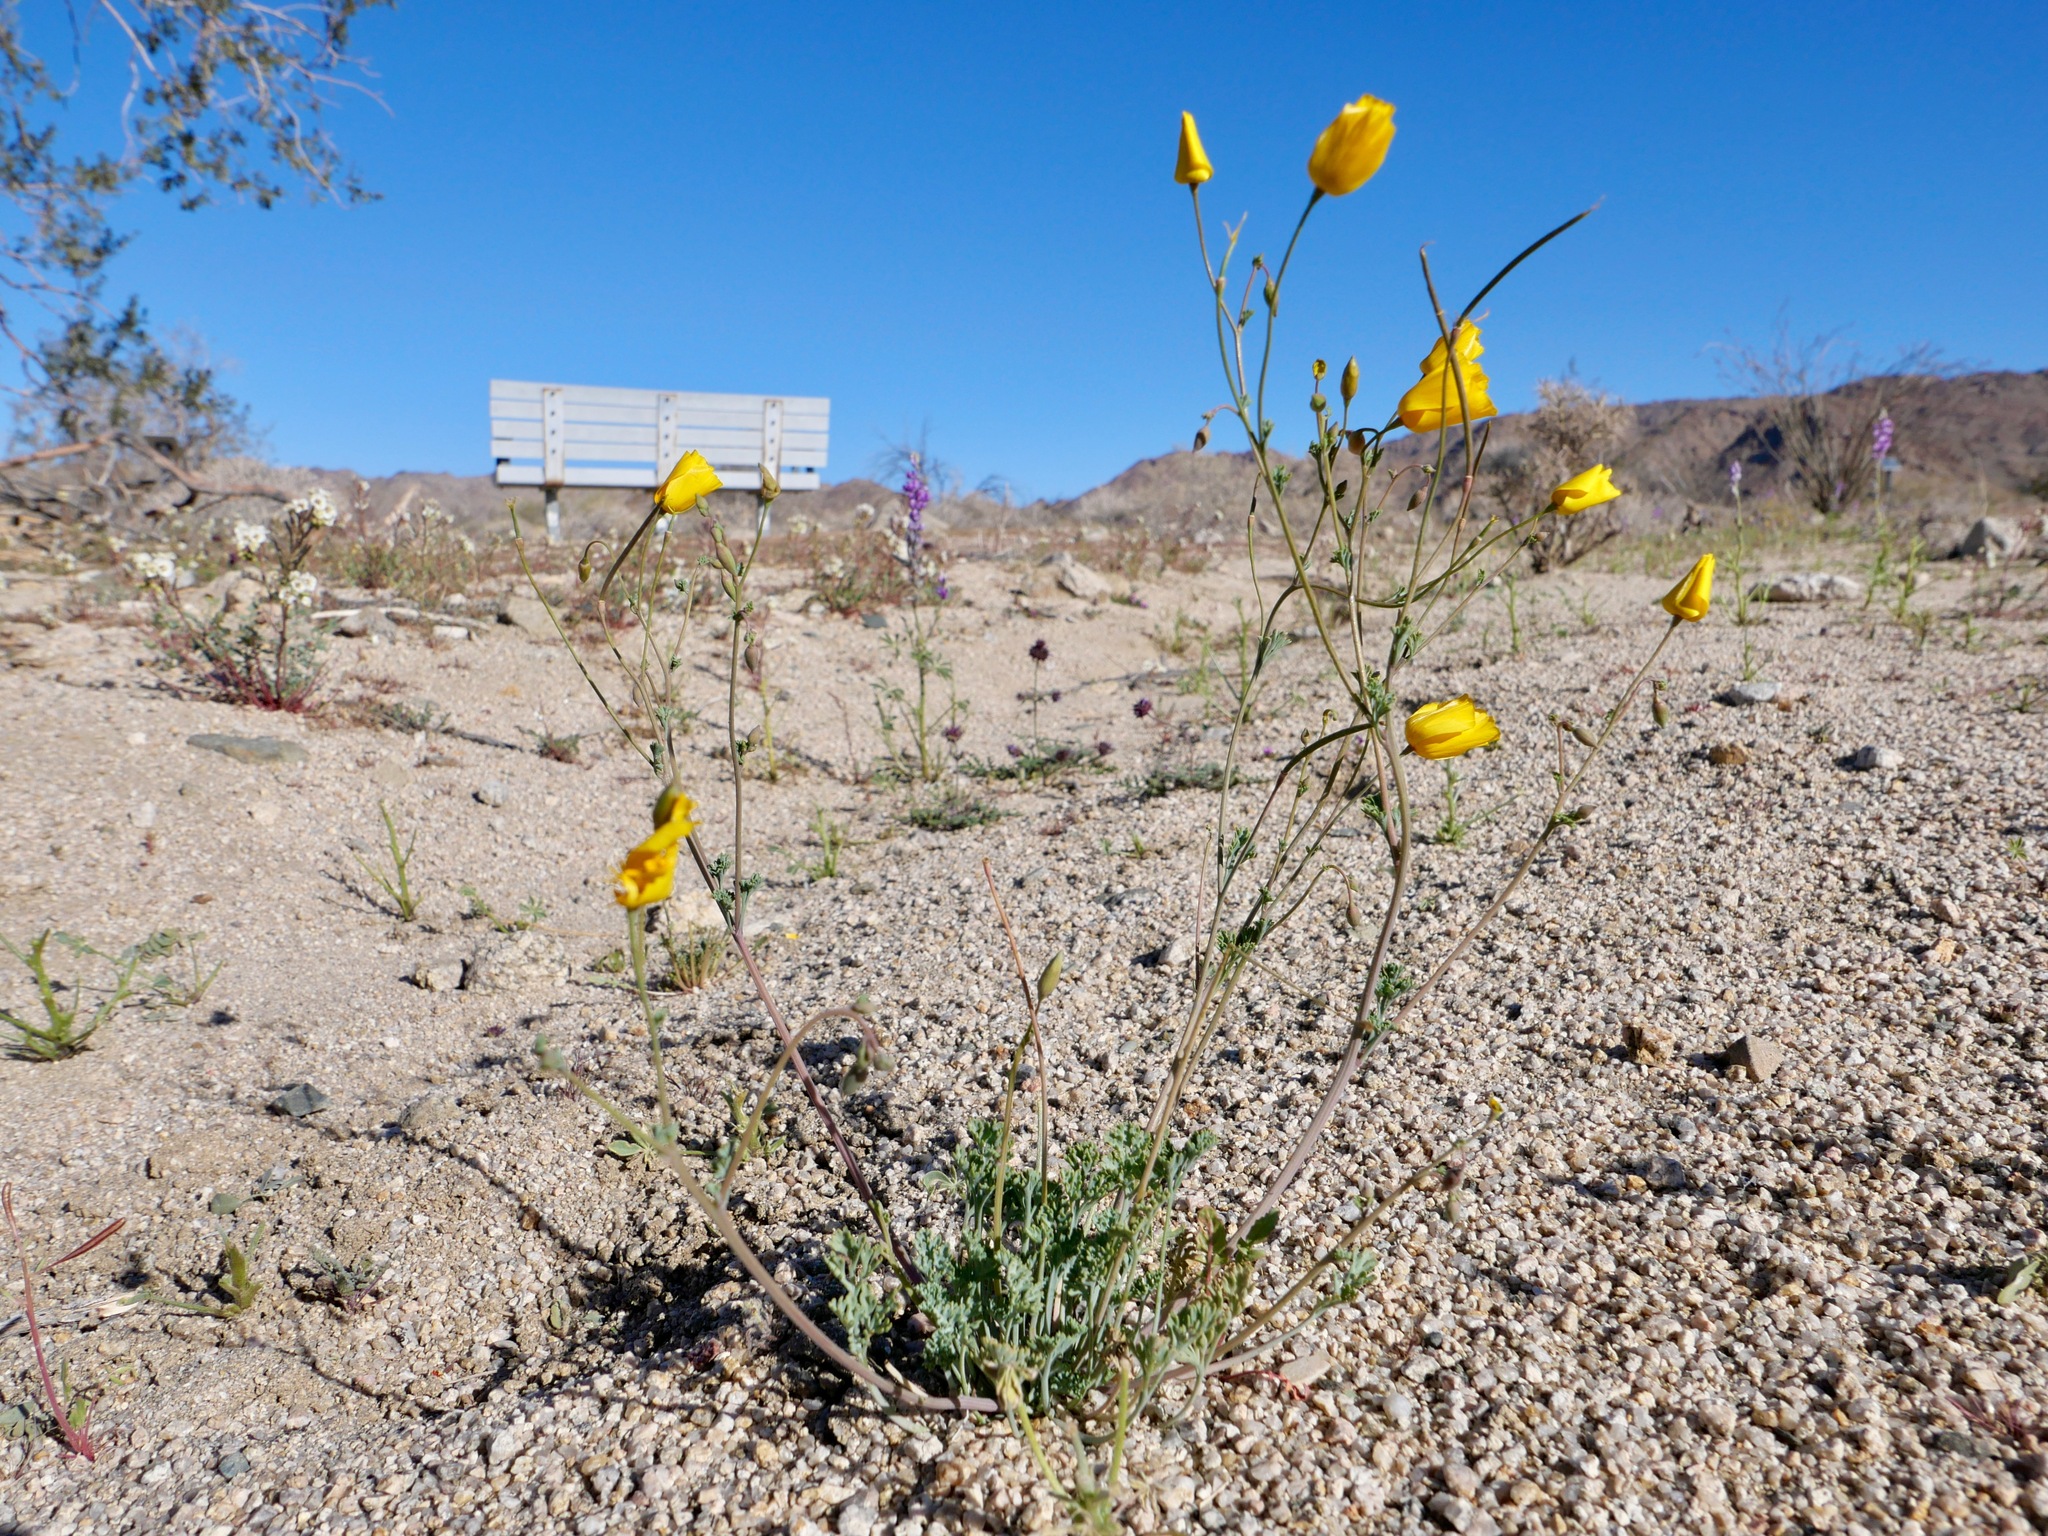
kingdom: Plantae
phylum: Tracheophyta
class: Magnoliopsida
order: Ranunculales
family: Papaveraceae
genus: Eschscholzia
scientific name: Eschscholzia androuxii
